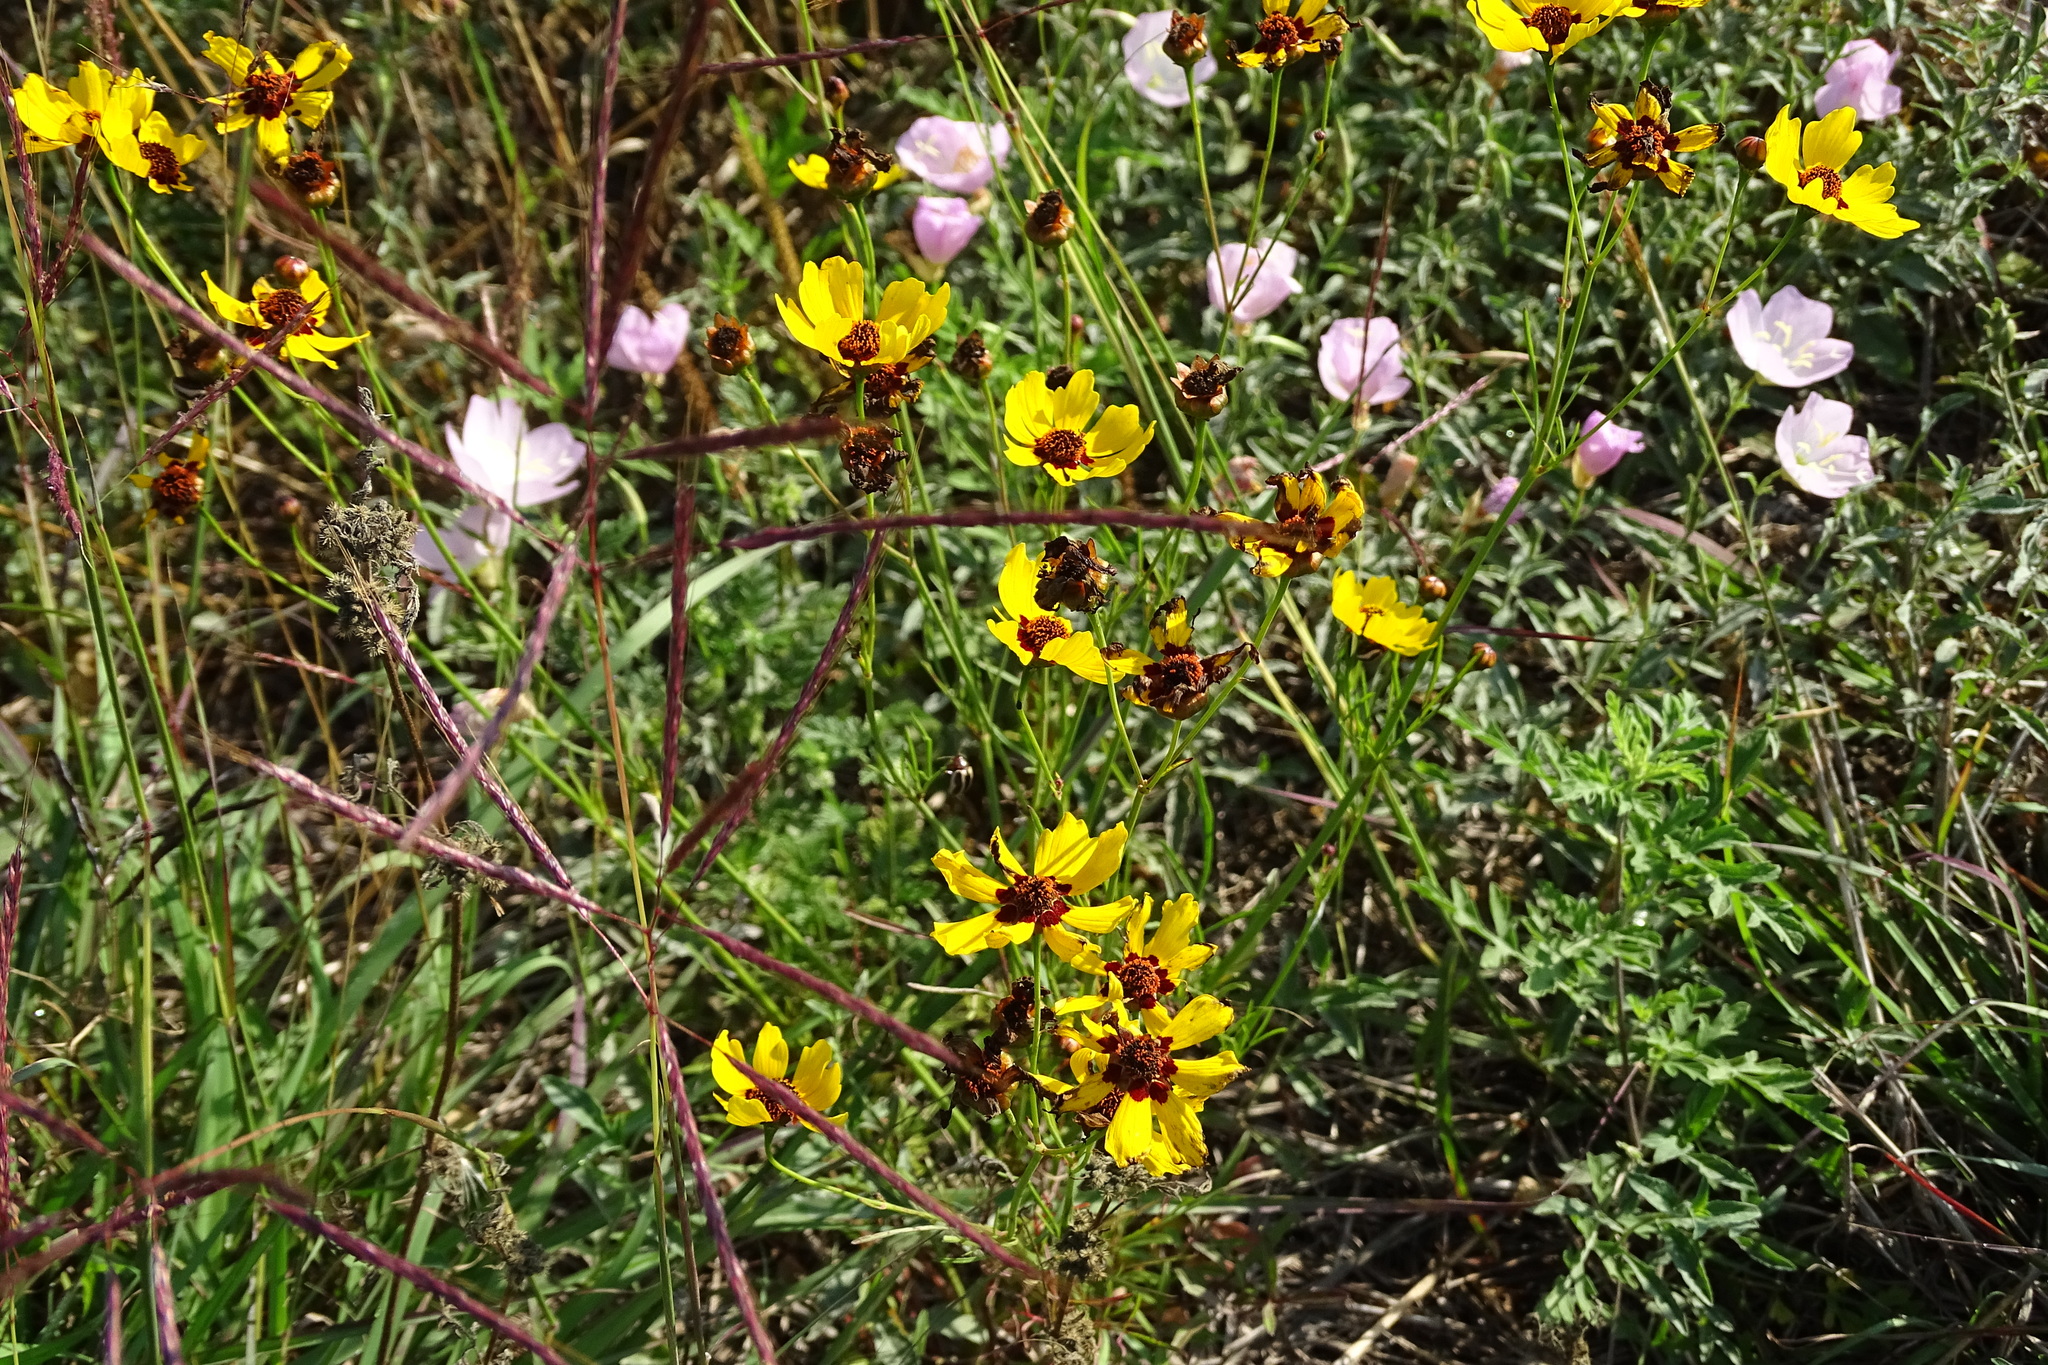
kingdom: Plantae
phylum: Tracheophyta
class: Magnoliopsida
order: Asterales
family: Asteraceae
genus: Coreopsis
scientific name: Coreopsis tinctoria
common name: Garden tickseed
